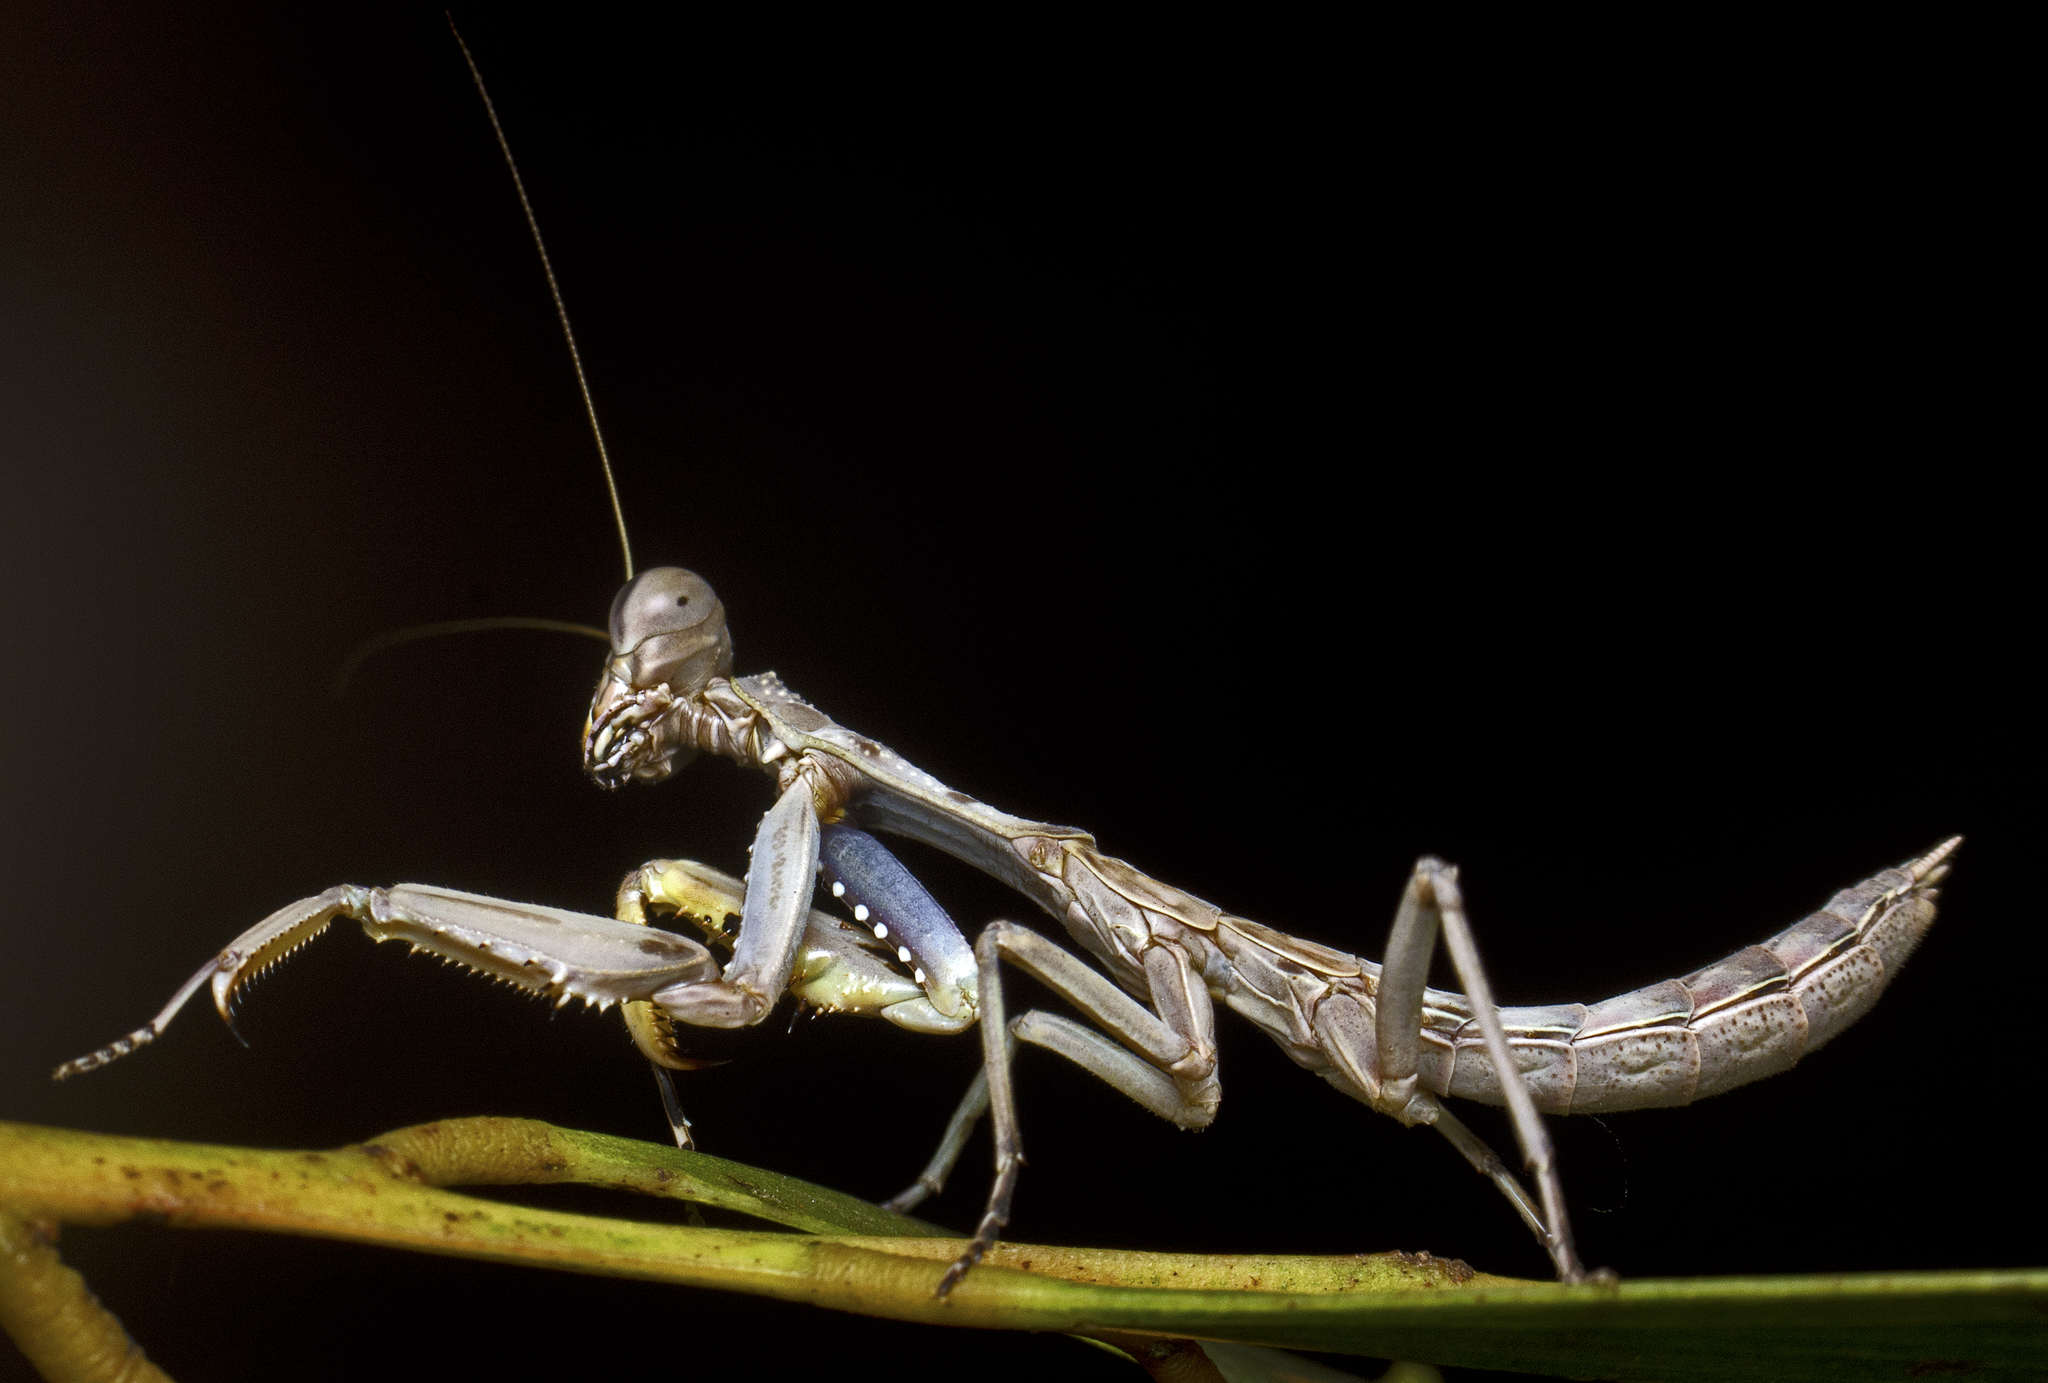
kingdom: Animalia
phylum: Arthropoda
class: Insecta
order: Mantodea
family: Mantidae
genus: Sphodropoda
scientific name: Sphodropoda tristis
